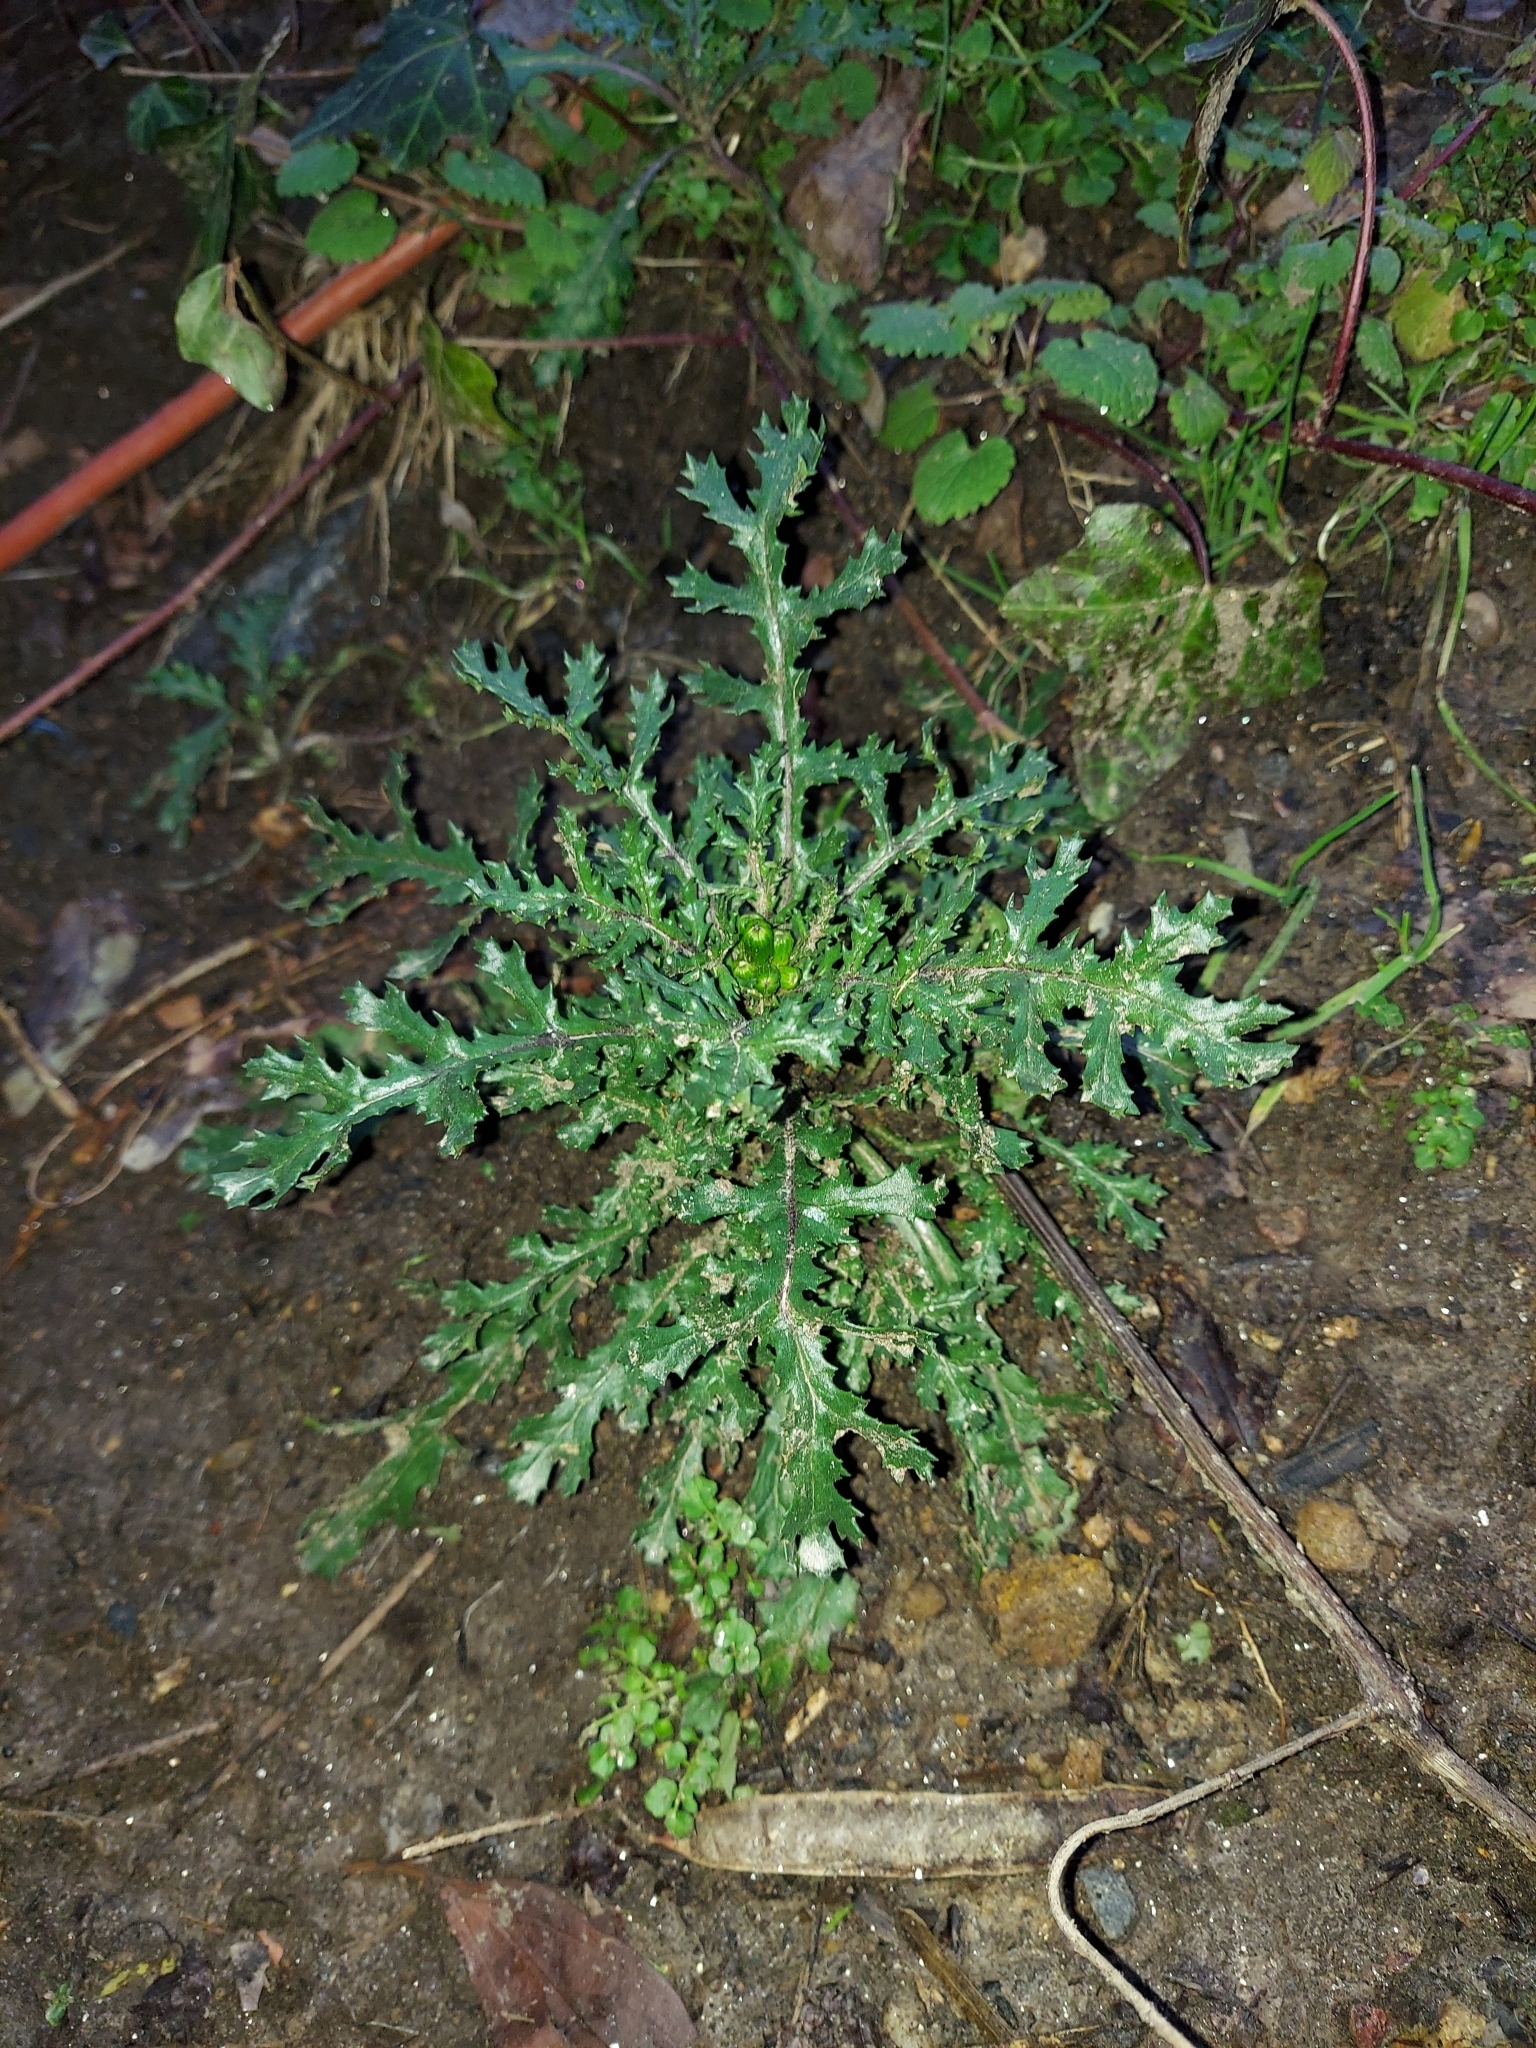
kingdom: Plantae
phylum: Tracheophyta
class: Magnoliopsida
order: Asterales
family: Asteraceae
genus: Senecio
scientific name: Senecio vulgaris
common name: Old-man-in-the-spring
